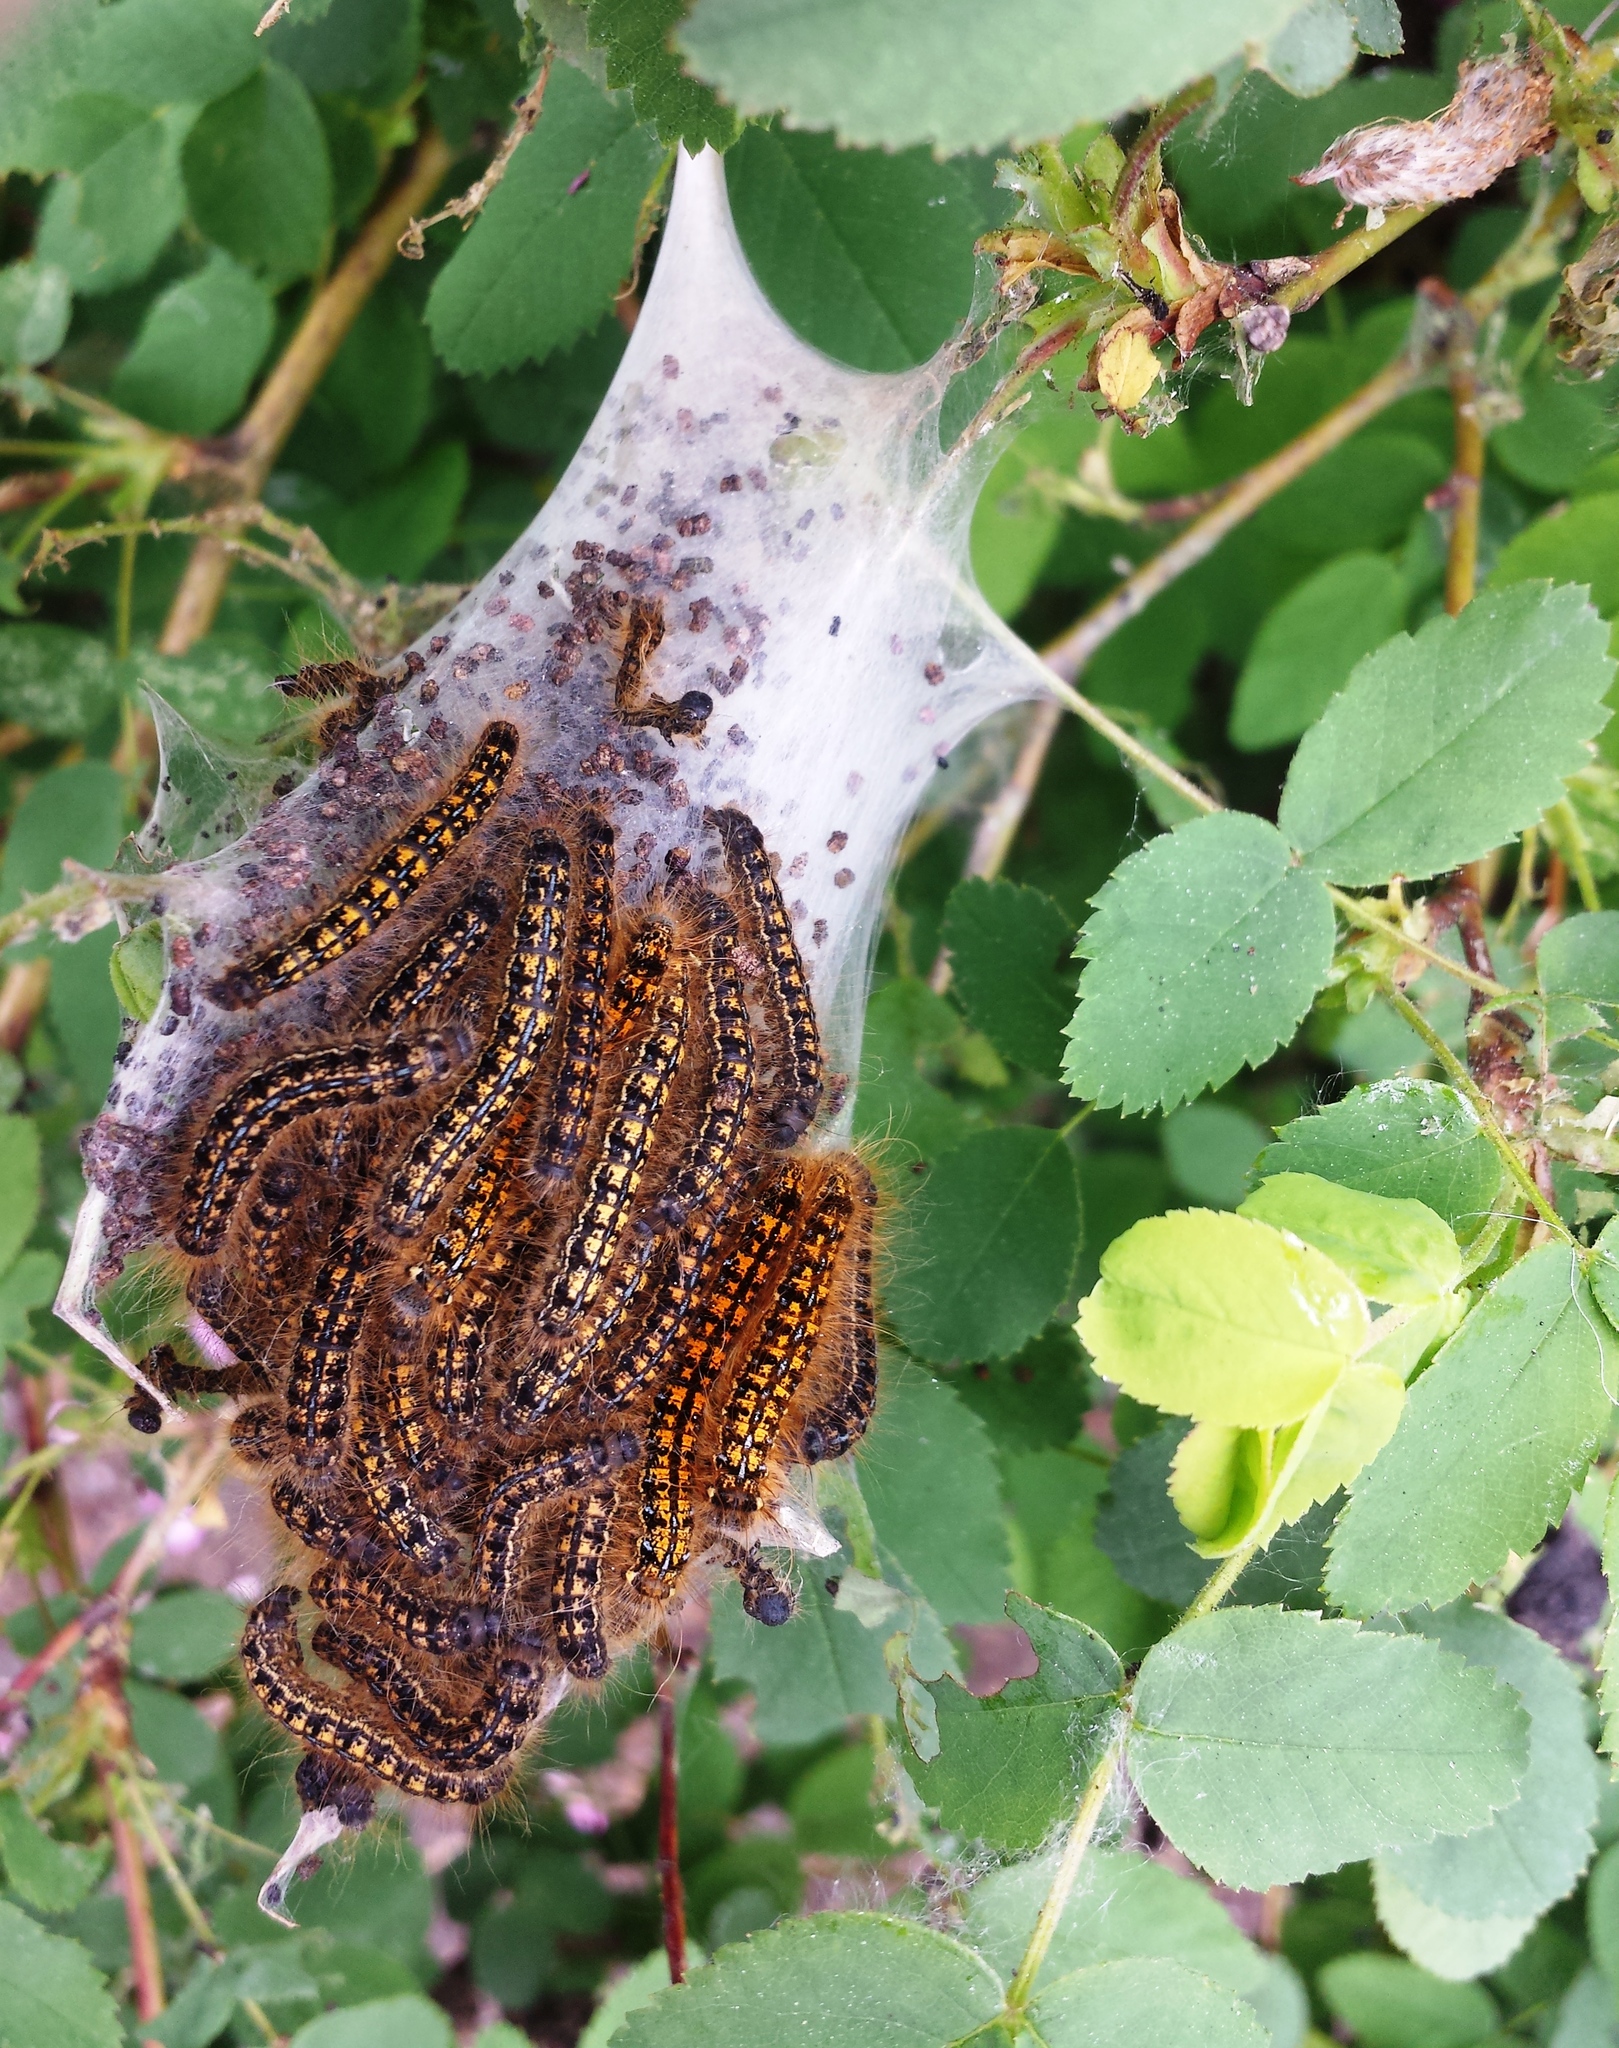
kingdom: Animalia
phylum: Arthropoda
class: Insecta
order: Lepidoptera
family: Lasiocampidae
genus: Malacosoma
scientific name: Malacosoma californica
